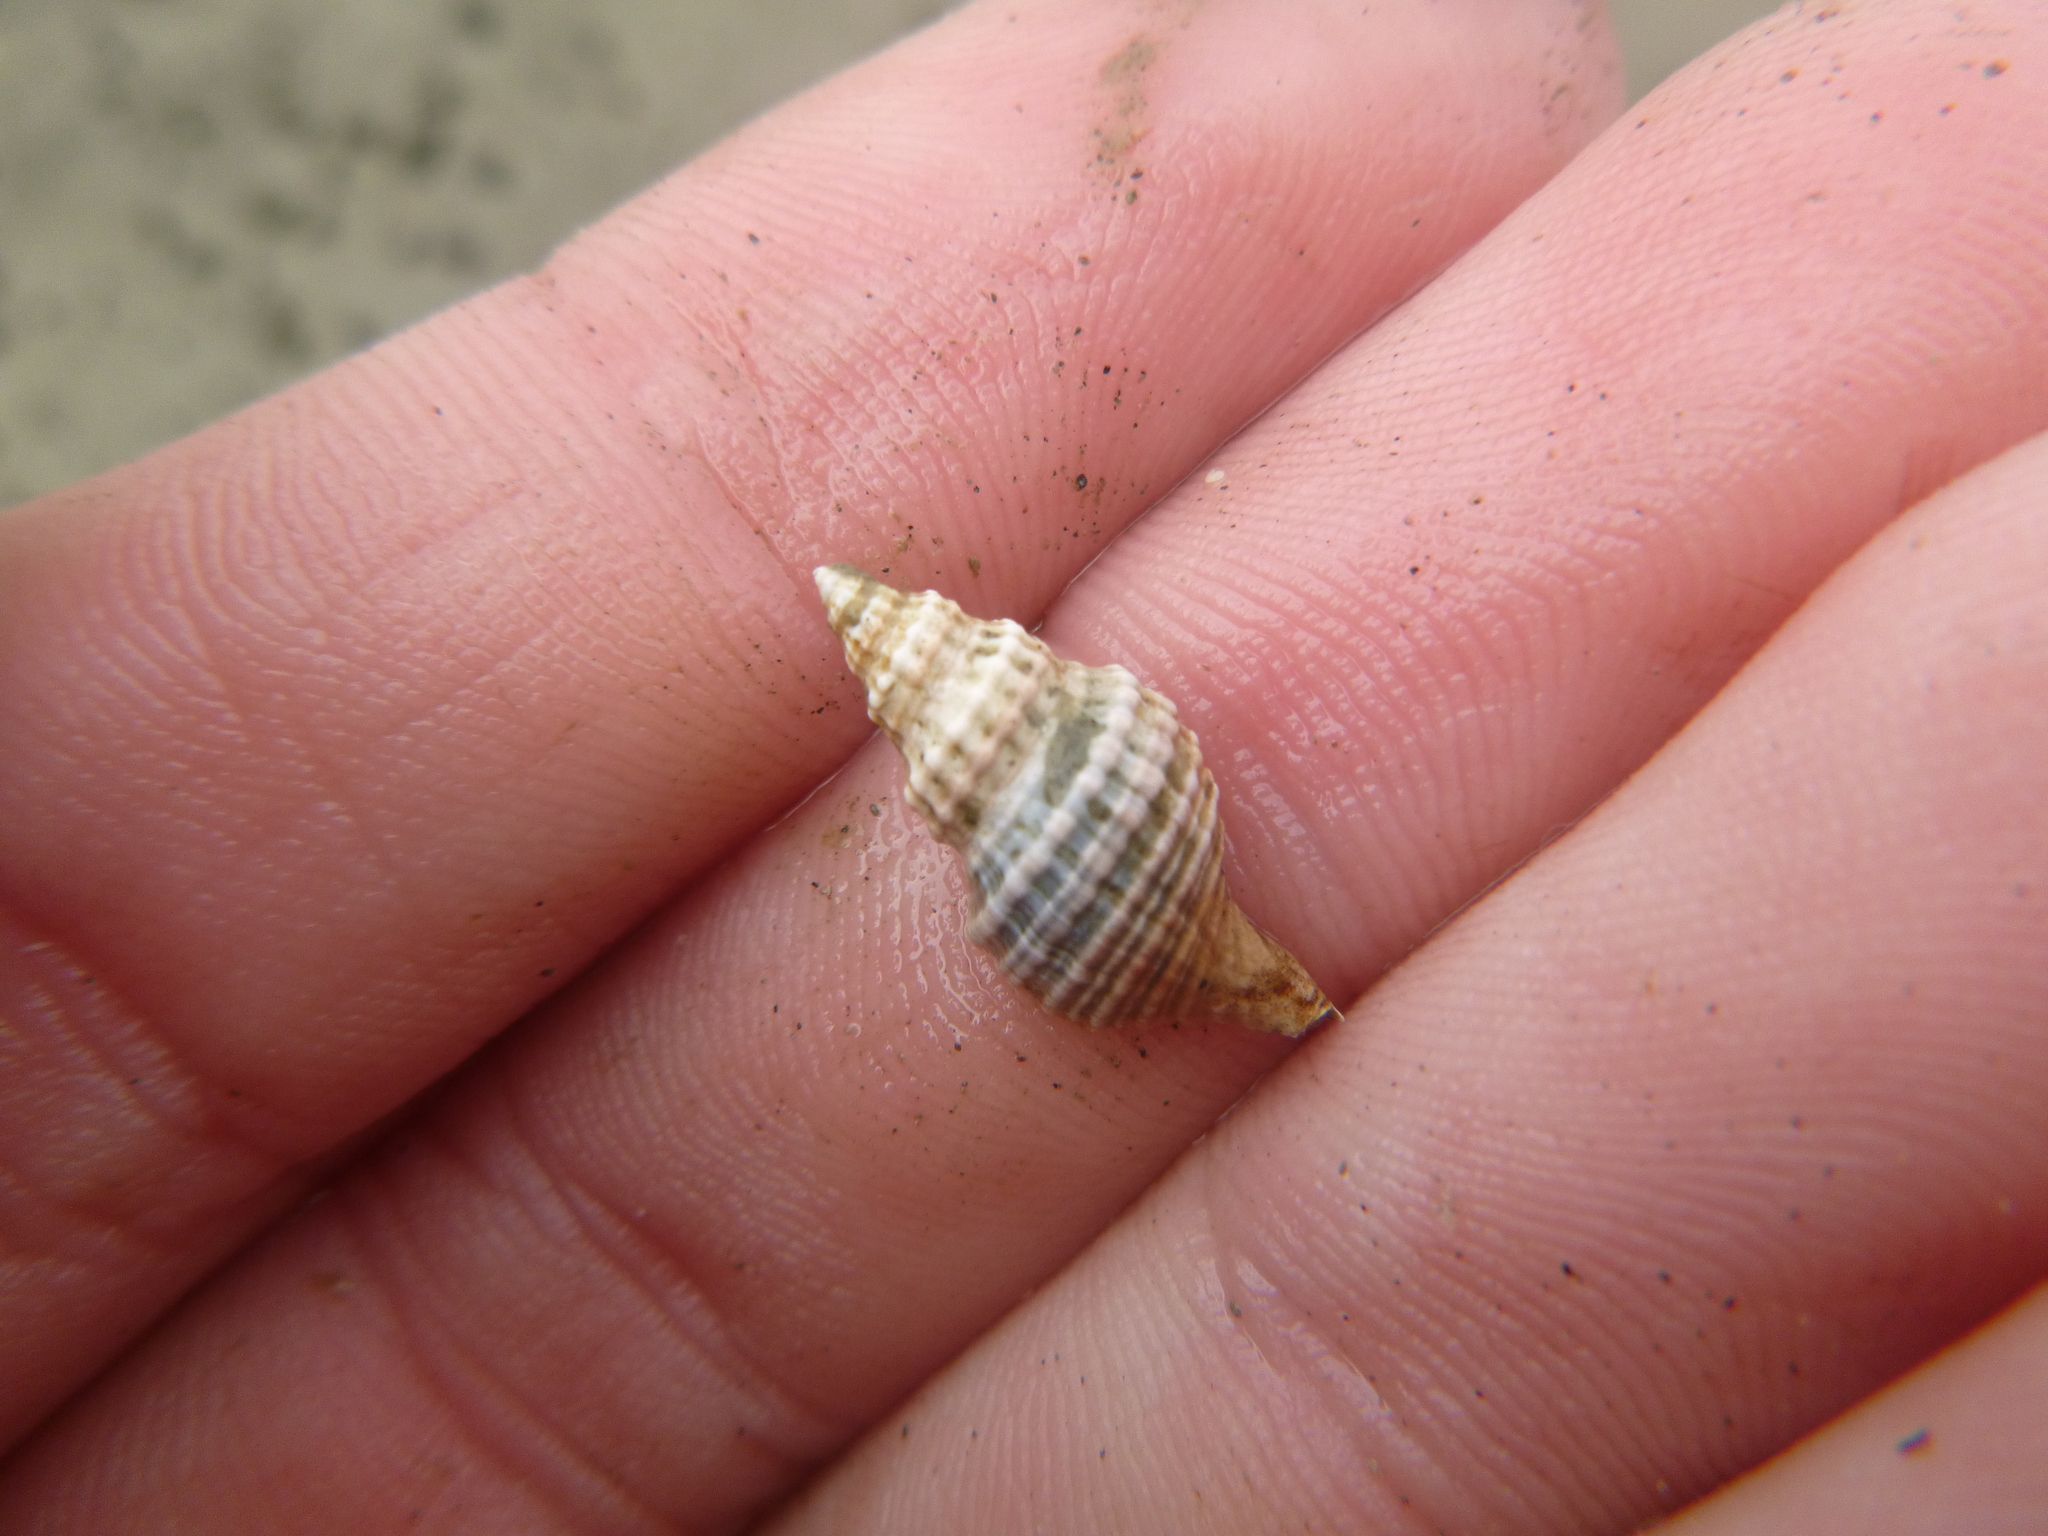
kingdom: Animalia
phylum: Mollusca
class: Gastropoda
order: Neogastropoda
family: Muricidae
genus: Xymene
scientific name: Xymene plebeius
